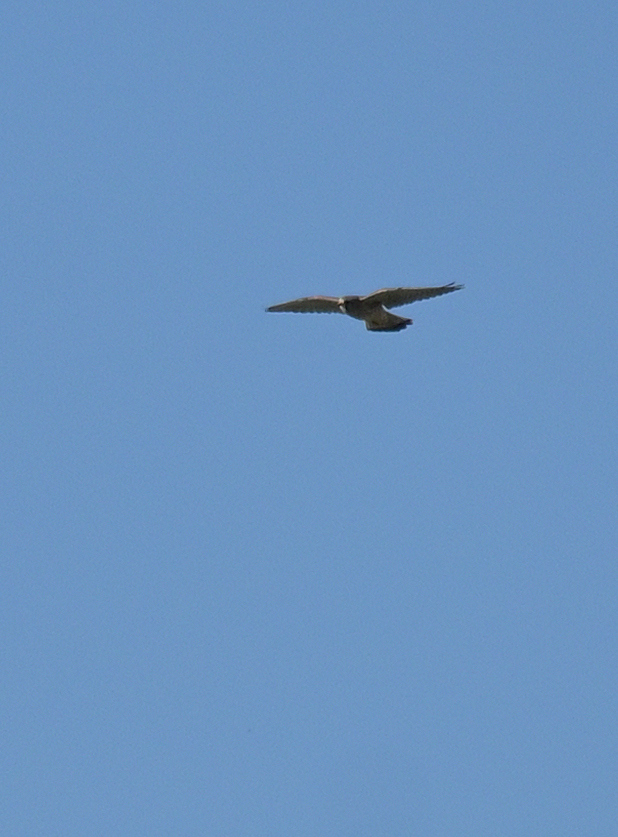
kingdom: Animalia
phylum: Chordata
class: Aves
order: Falconiformes
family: Falconidae
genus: Falco
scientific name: Falco tinnunculus
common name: Common kestrel
